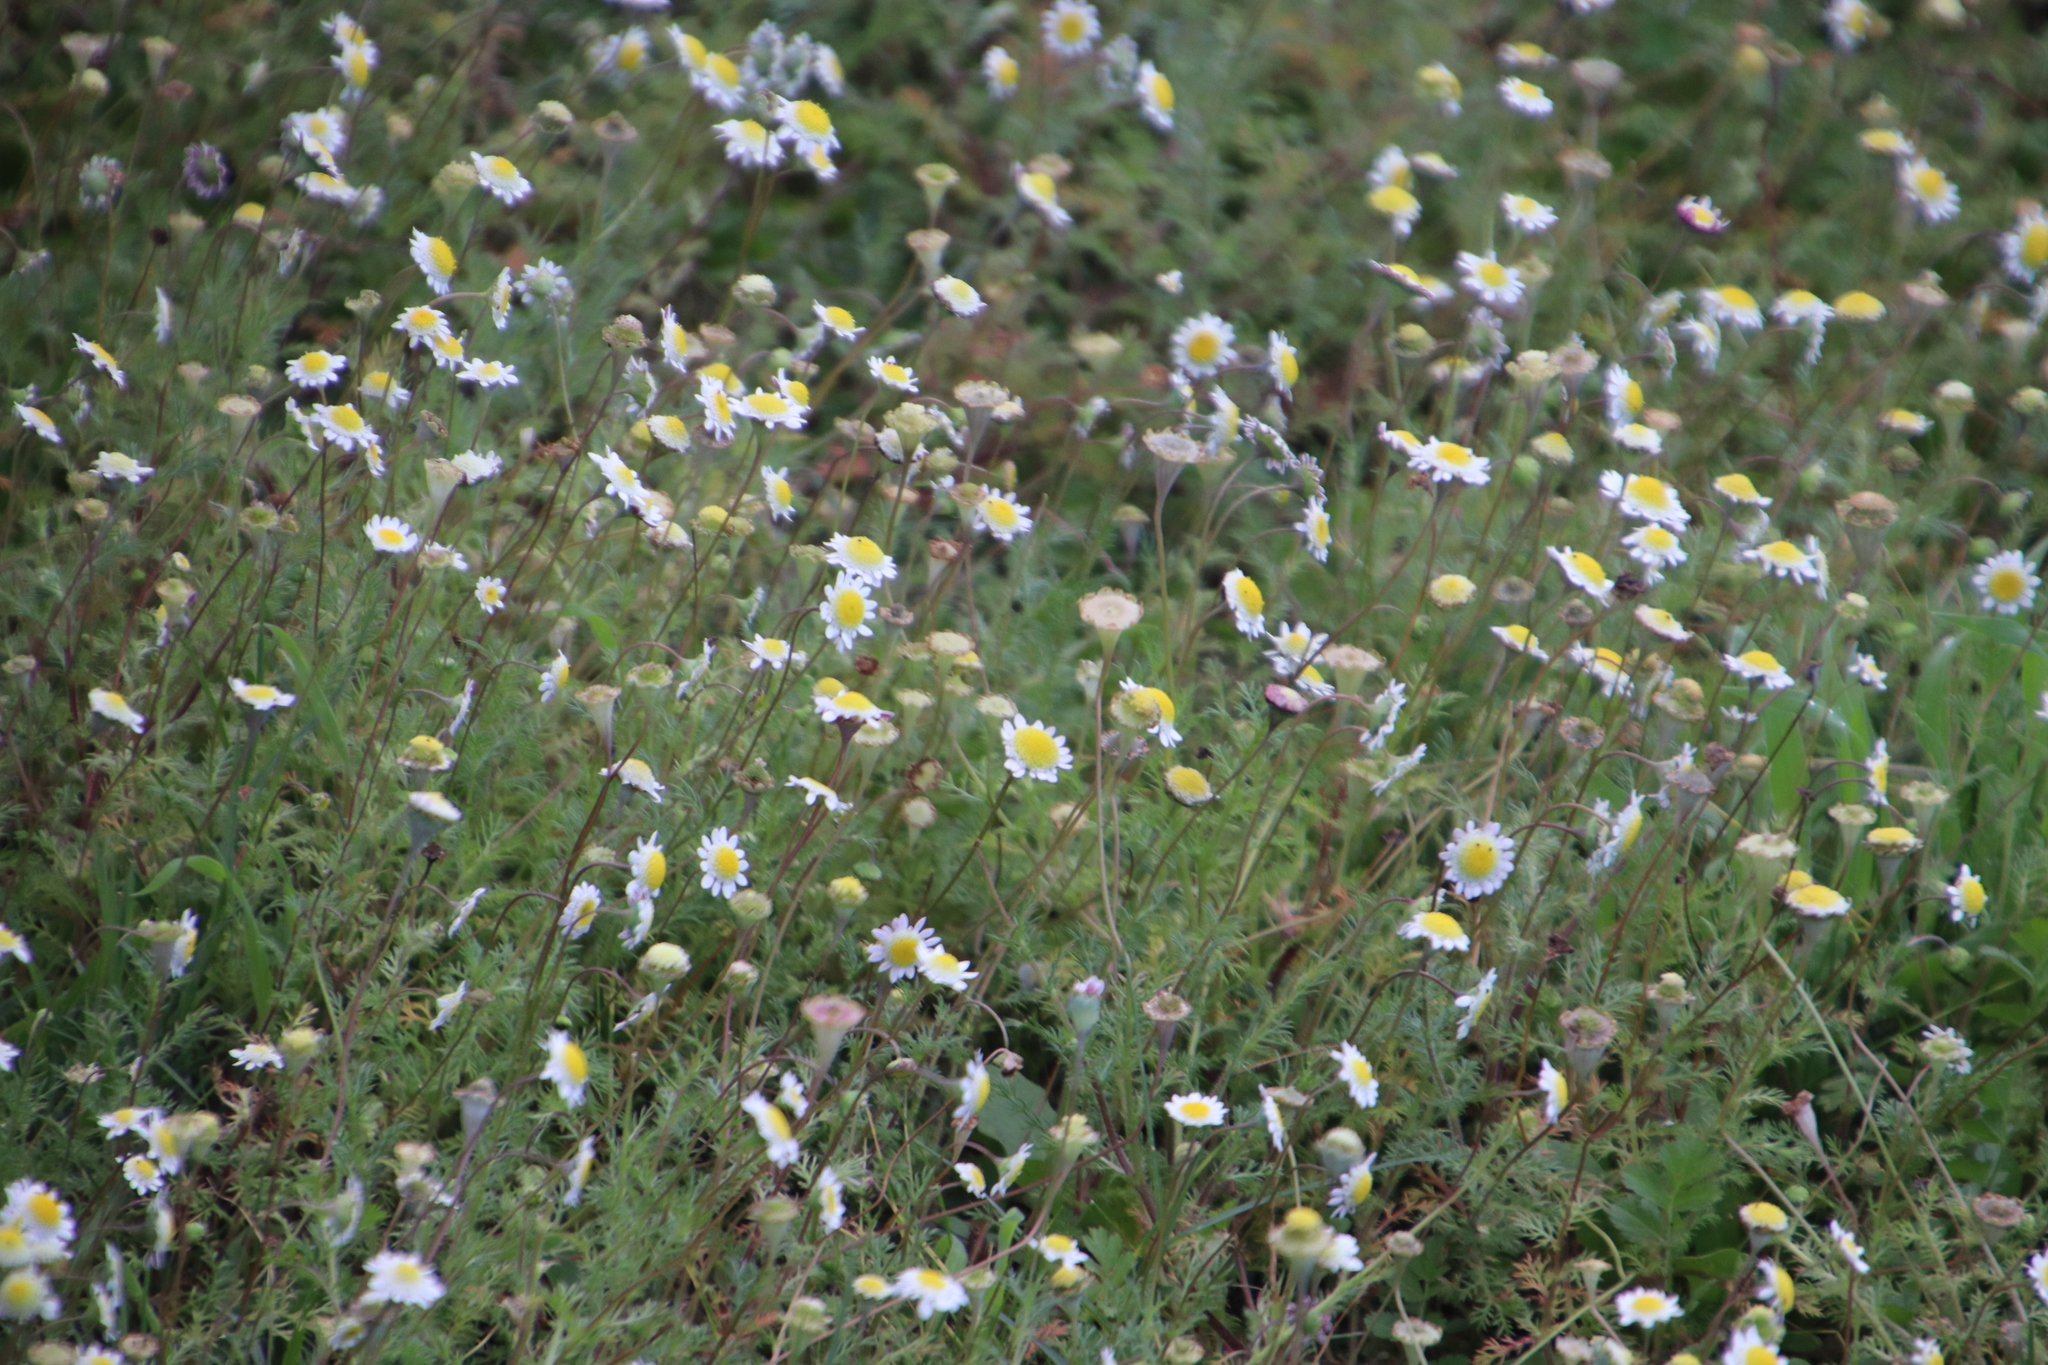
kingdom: Plantae
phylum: Tracheophyta
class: Magnoliopsida
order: Asterales
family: Asteraceae
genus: Cotula
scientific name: Cotula turbinata
